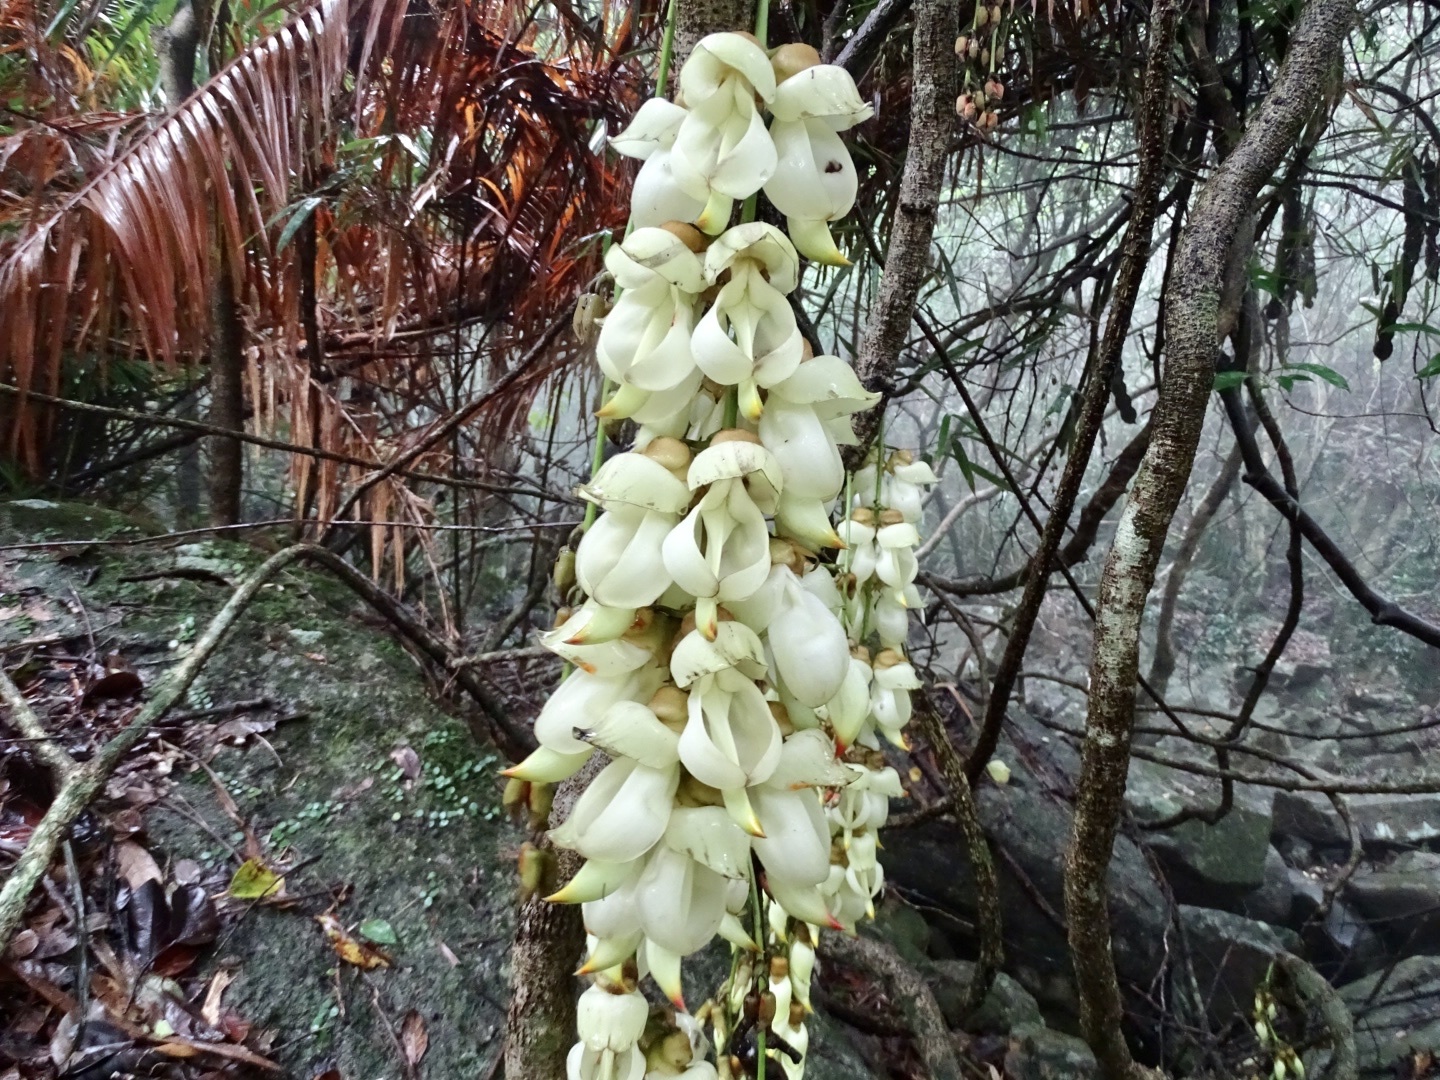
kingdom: Plantae
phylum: Tracheophyta
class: Magnoliopsida
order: Fabales
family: Fabaceae
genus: Mucuna
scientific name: Mucuna birdwoodiana
